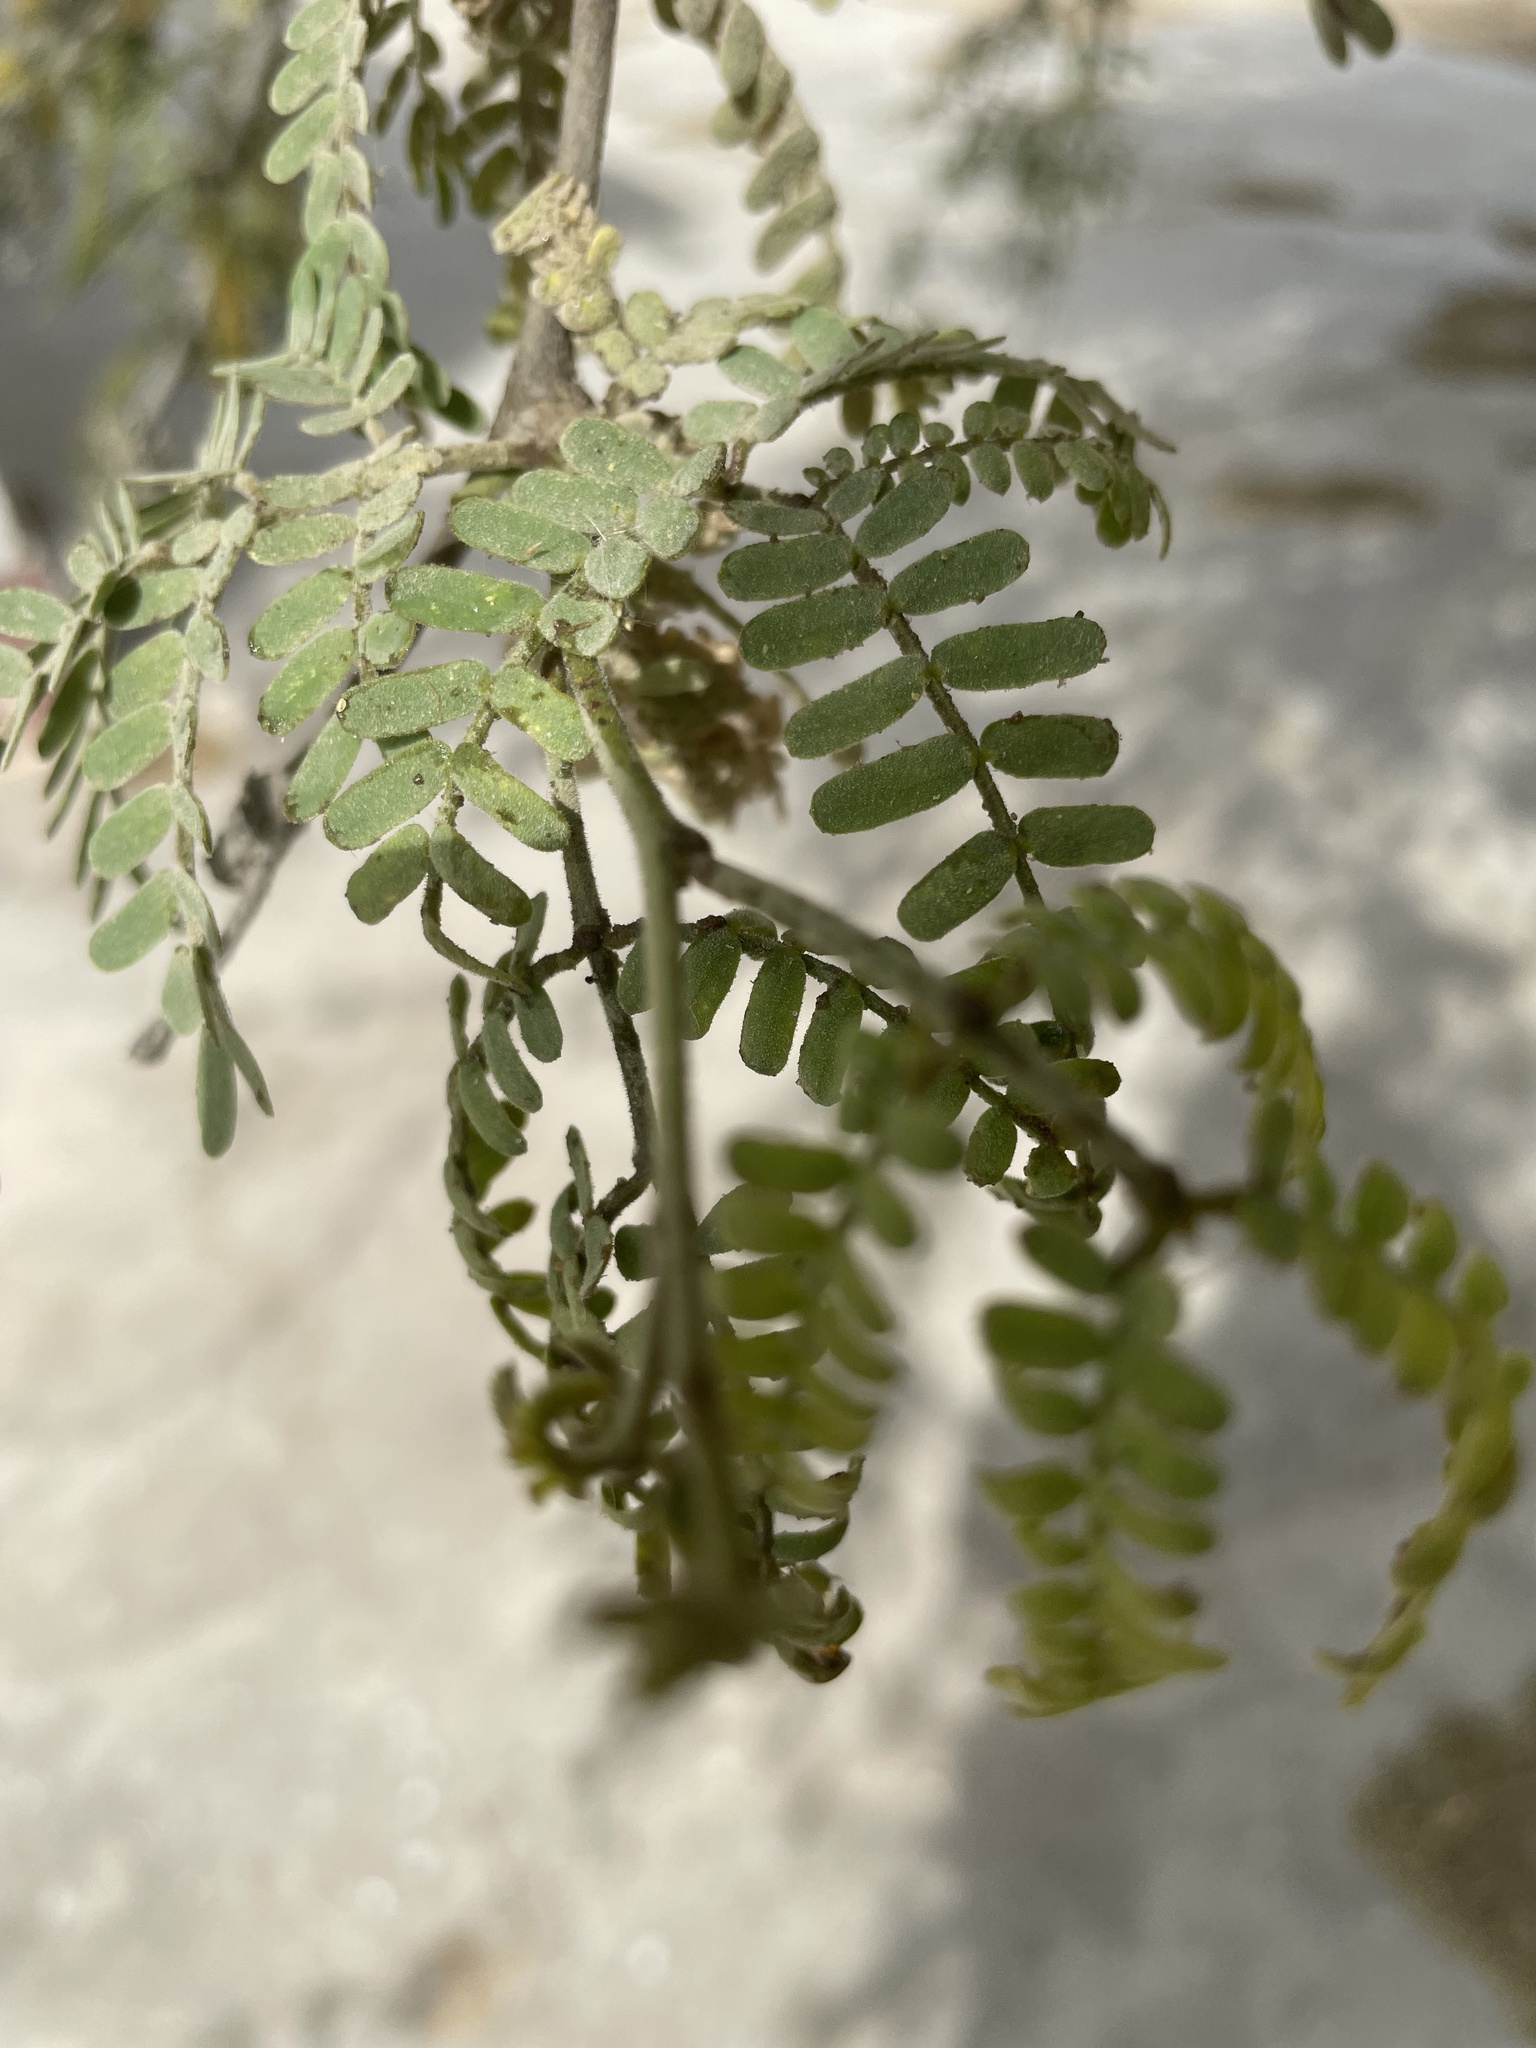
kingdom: Plantae
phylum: Tracheophyta
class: Magnoliopsida
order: Fabales
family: Fabaceae
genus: Prosopis
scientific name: Prosopis pallida
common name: Mesquite
